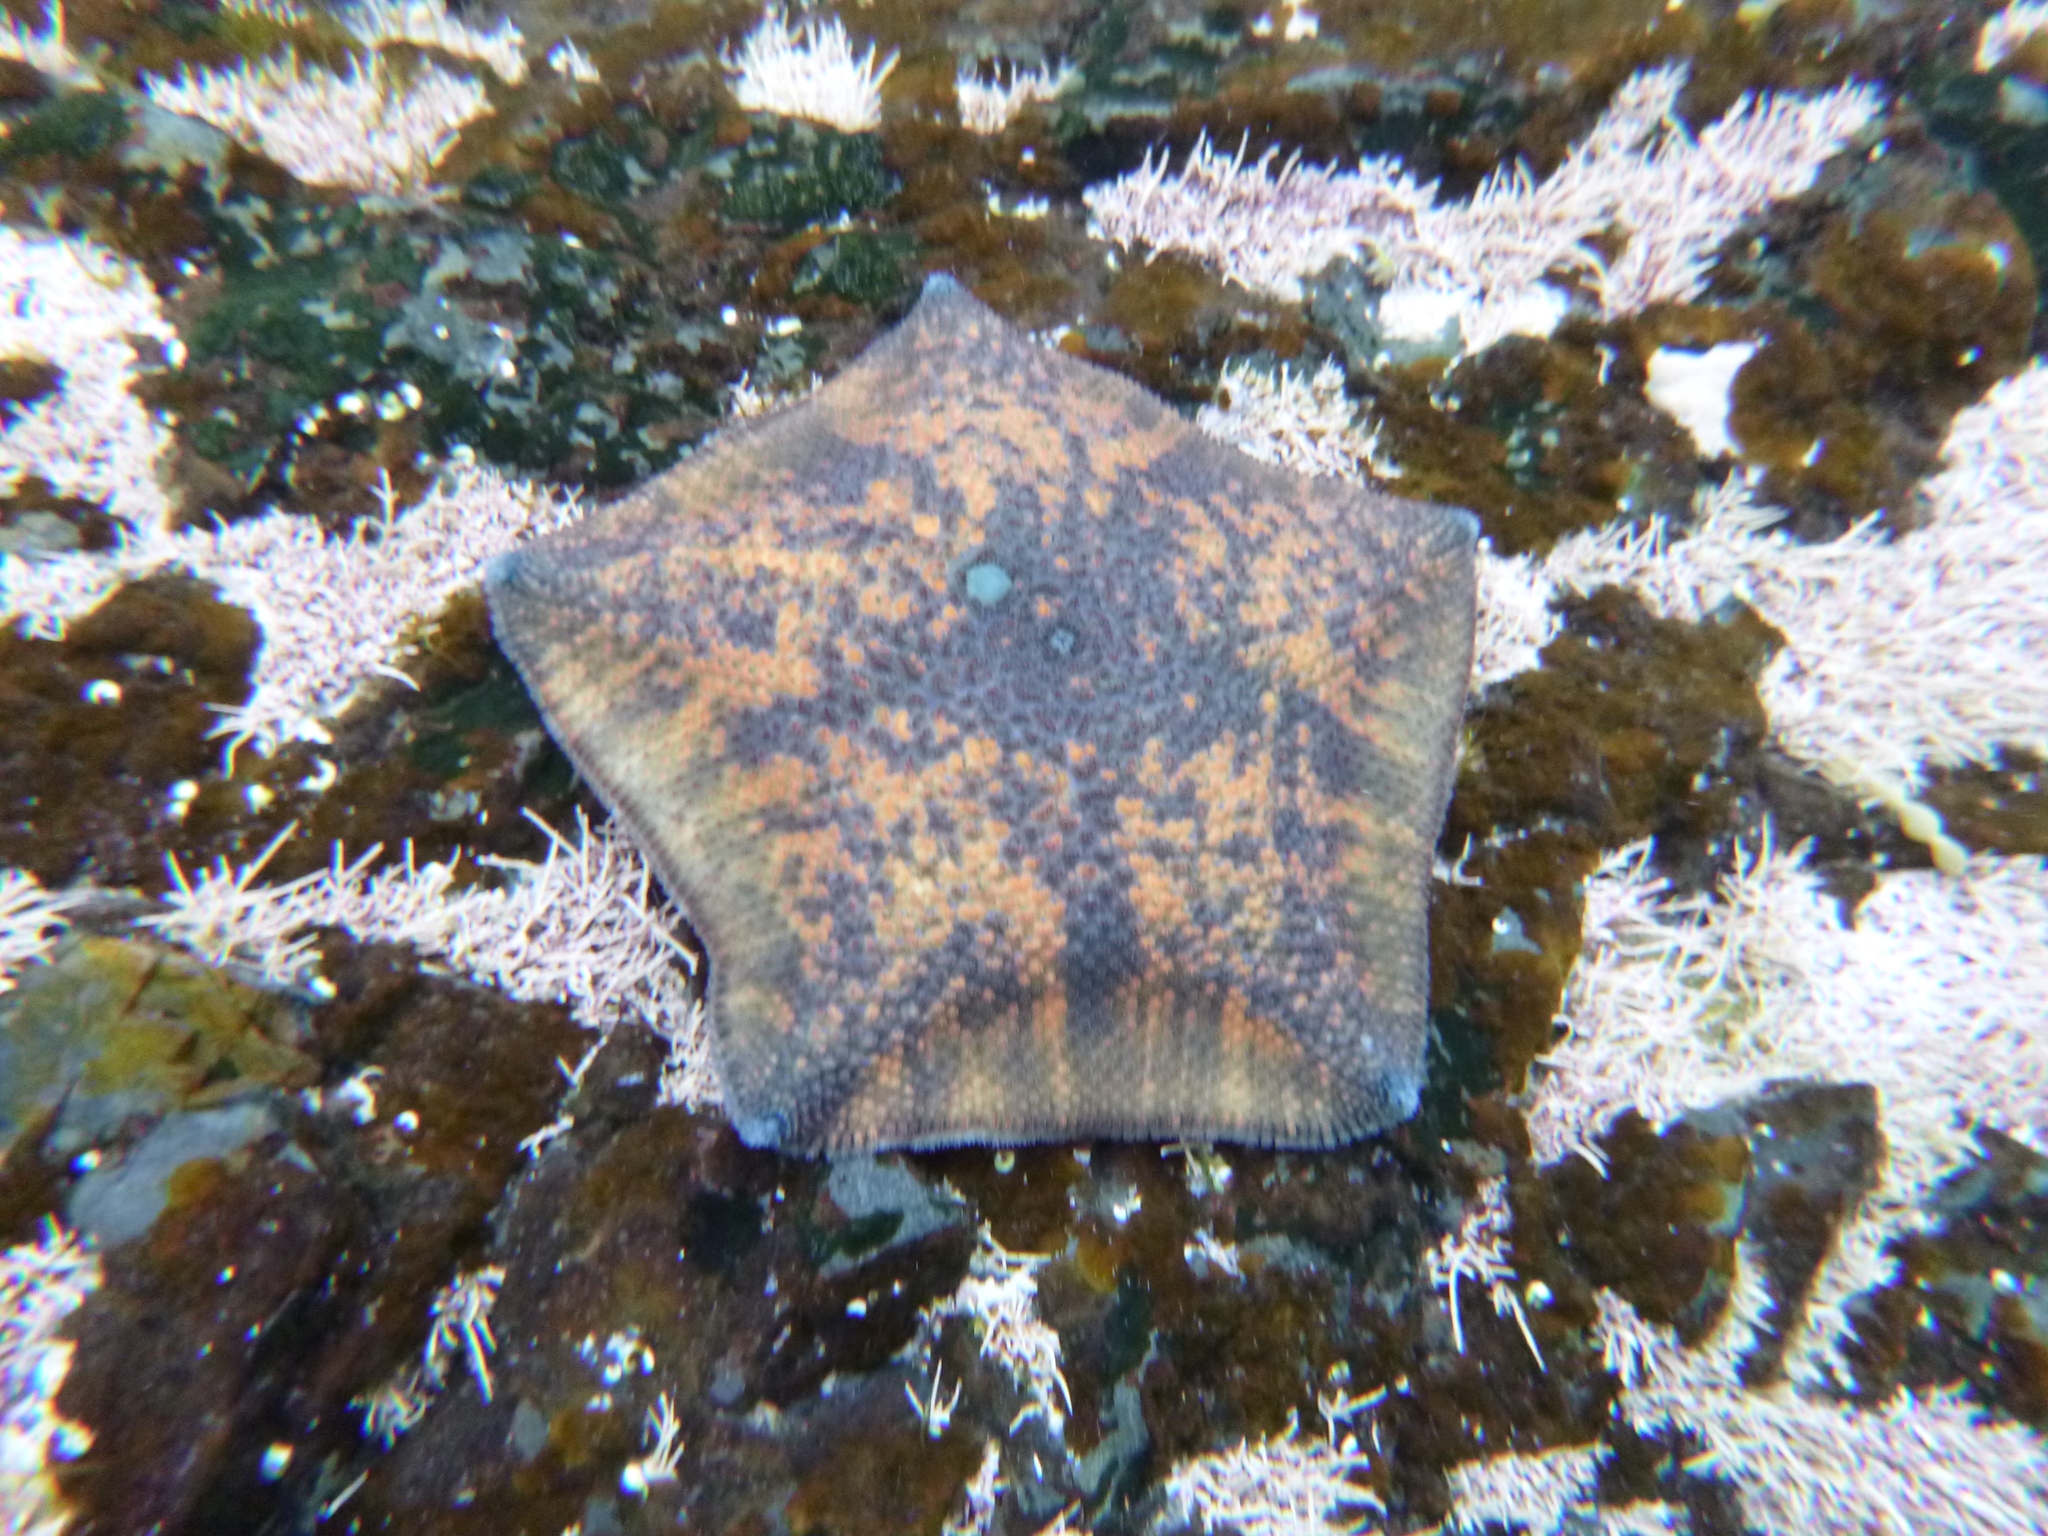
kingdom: Animalia
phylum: Echinodermata
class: Asteroidea
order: Valvatida
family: Asterinidae
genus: Patiriella
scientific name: Patiriella regularis
